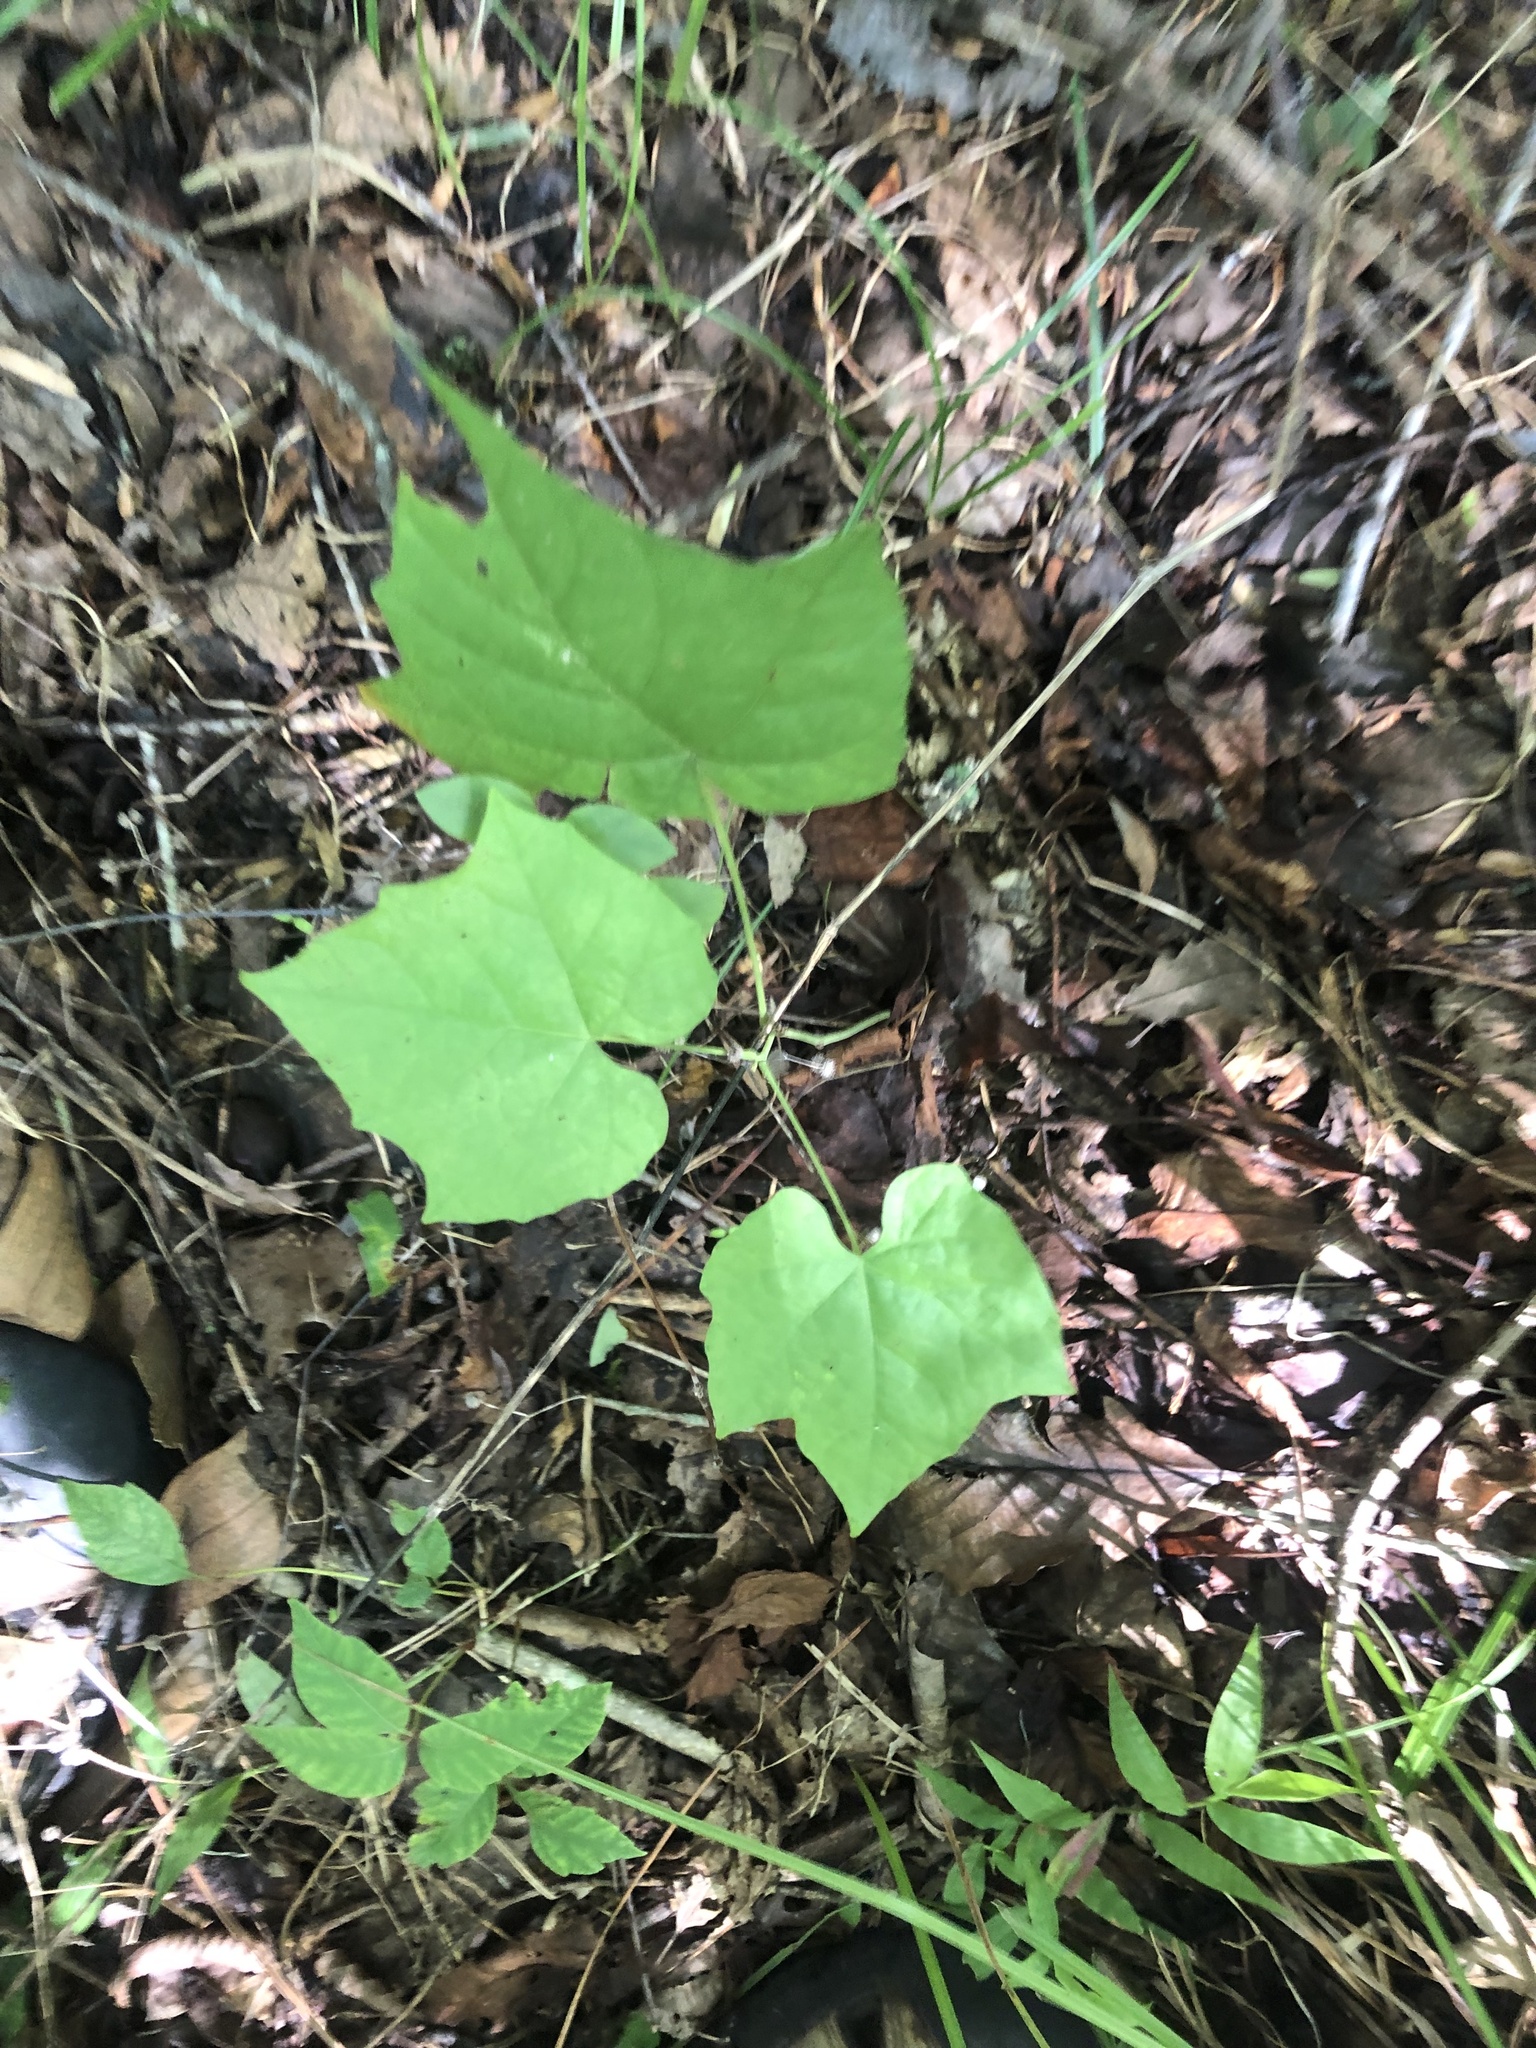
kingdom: Plantae
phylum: Tracheophyta
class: Magnoliopsida
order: Ranunculales
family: Menispermaceae
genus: Calycocarpum
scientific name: Calycocarpum lyonii
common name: Cupseed
